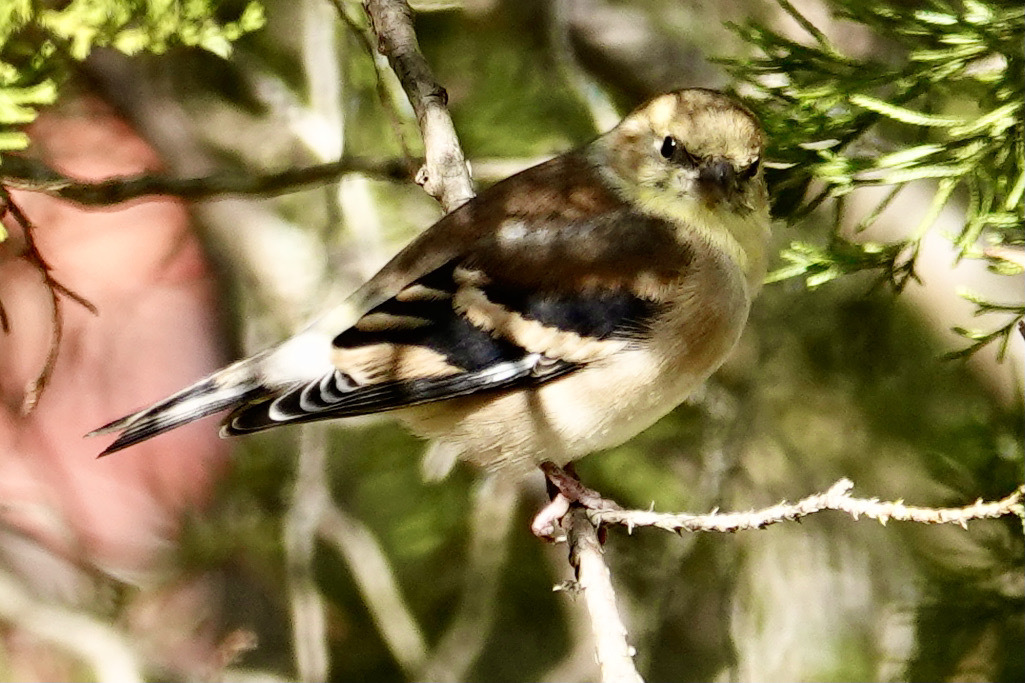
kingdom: Animalia
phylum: Chordata
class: Aves
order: Passeriformes
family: Fringillidae
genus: Spinus
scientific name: Spinus tristis
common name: American goldfinch
